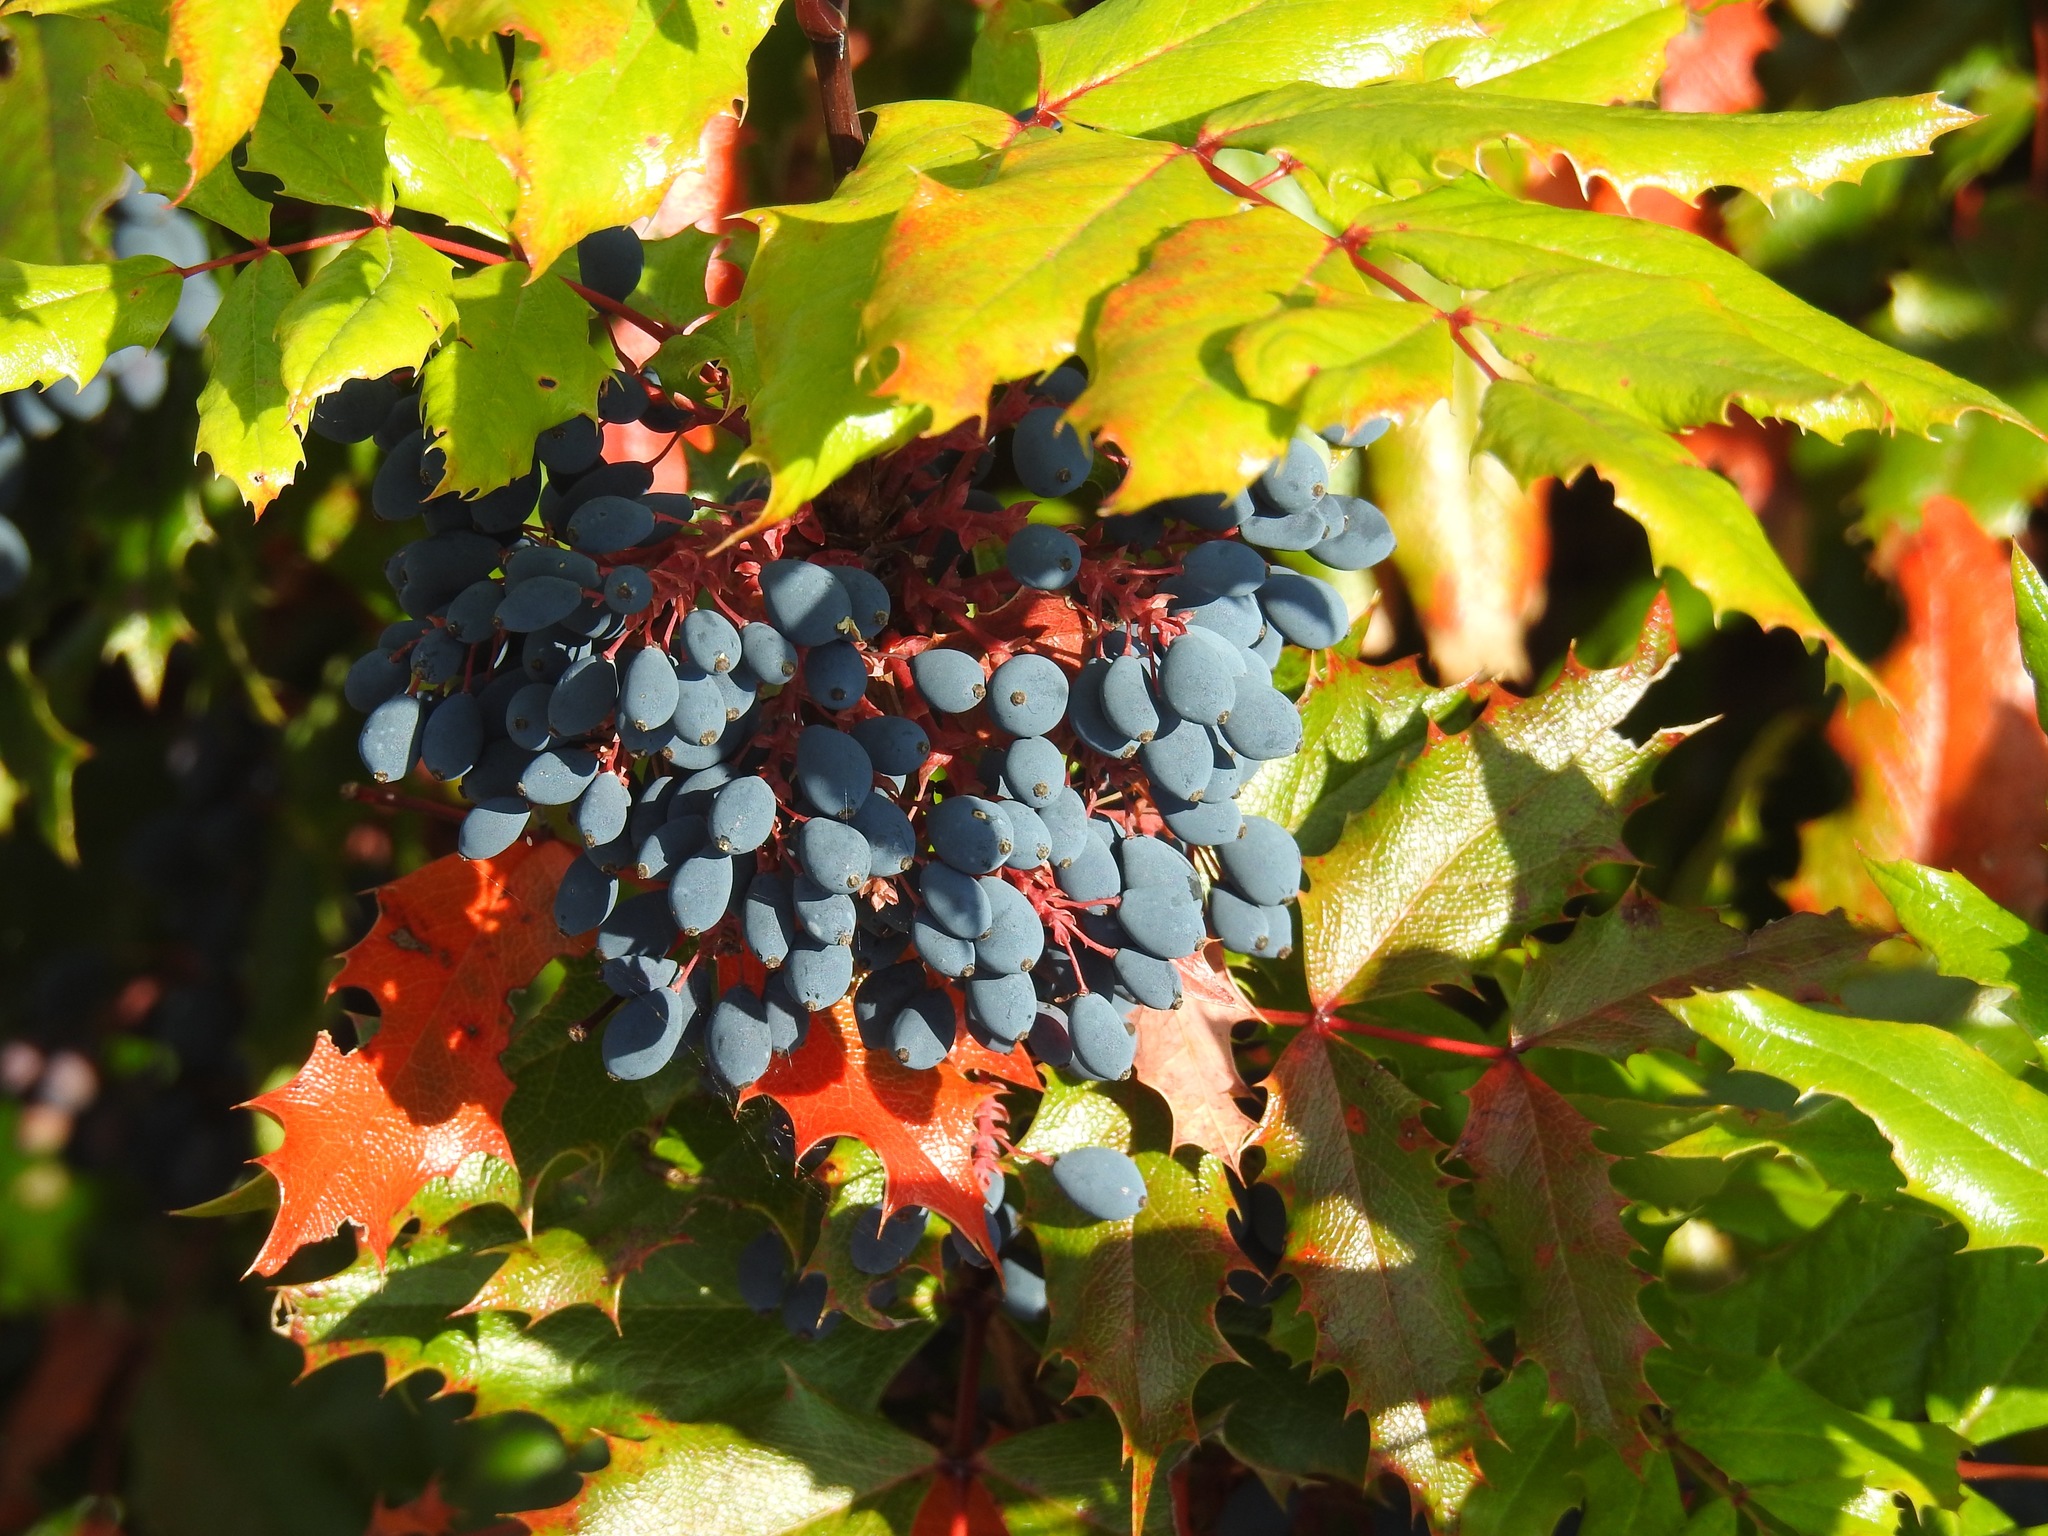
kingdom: Plantae
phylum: Tracheophyta
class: Magnoliopsida
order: Ranunculales
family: Berberidaceae
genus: Mahonia
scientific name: Mahonia aquifolium
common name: Oregon-grape
